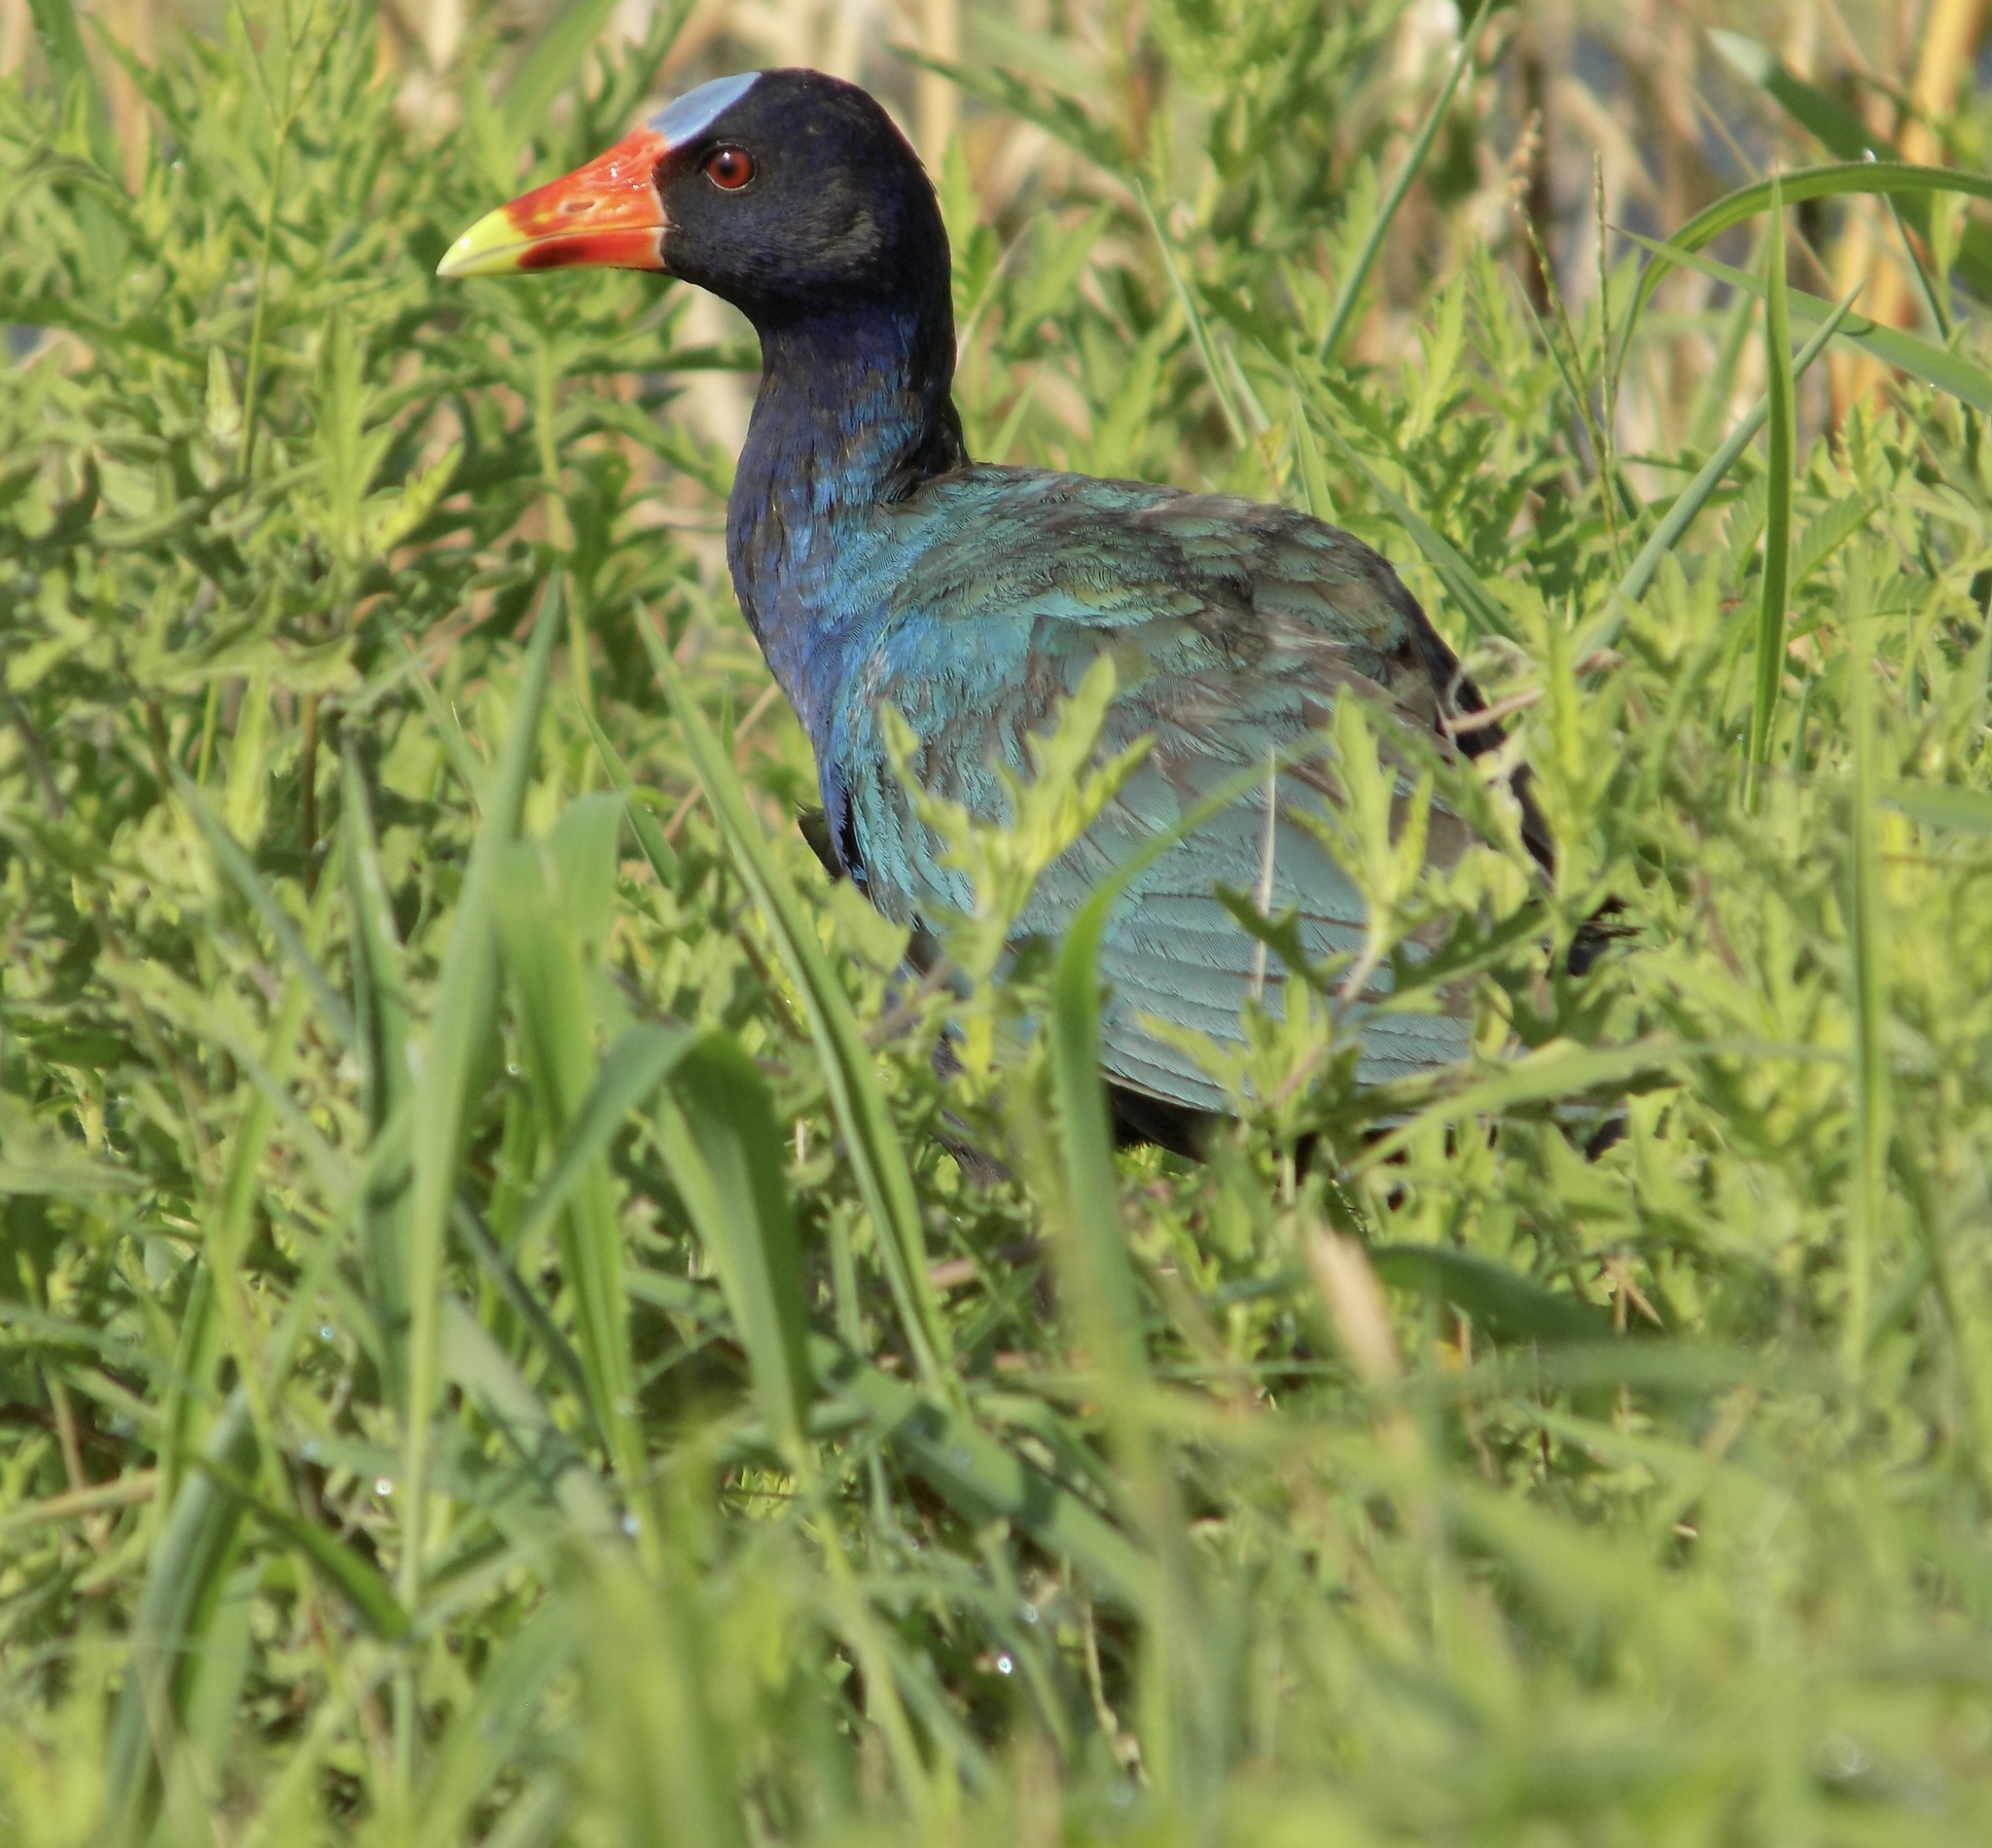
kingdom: Animalia
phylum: Chordata
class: Aves
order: Gruiformes
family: Rallidae
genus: Porphyrio
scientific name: Porphyrio martinica
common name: Purple gallinule
